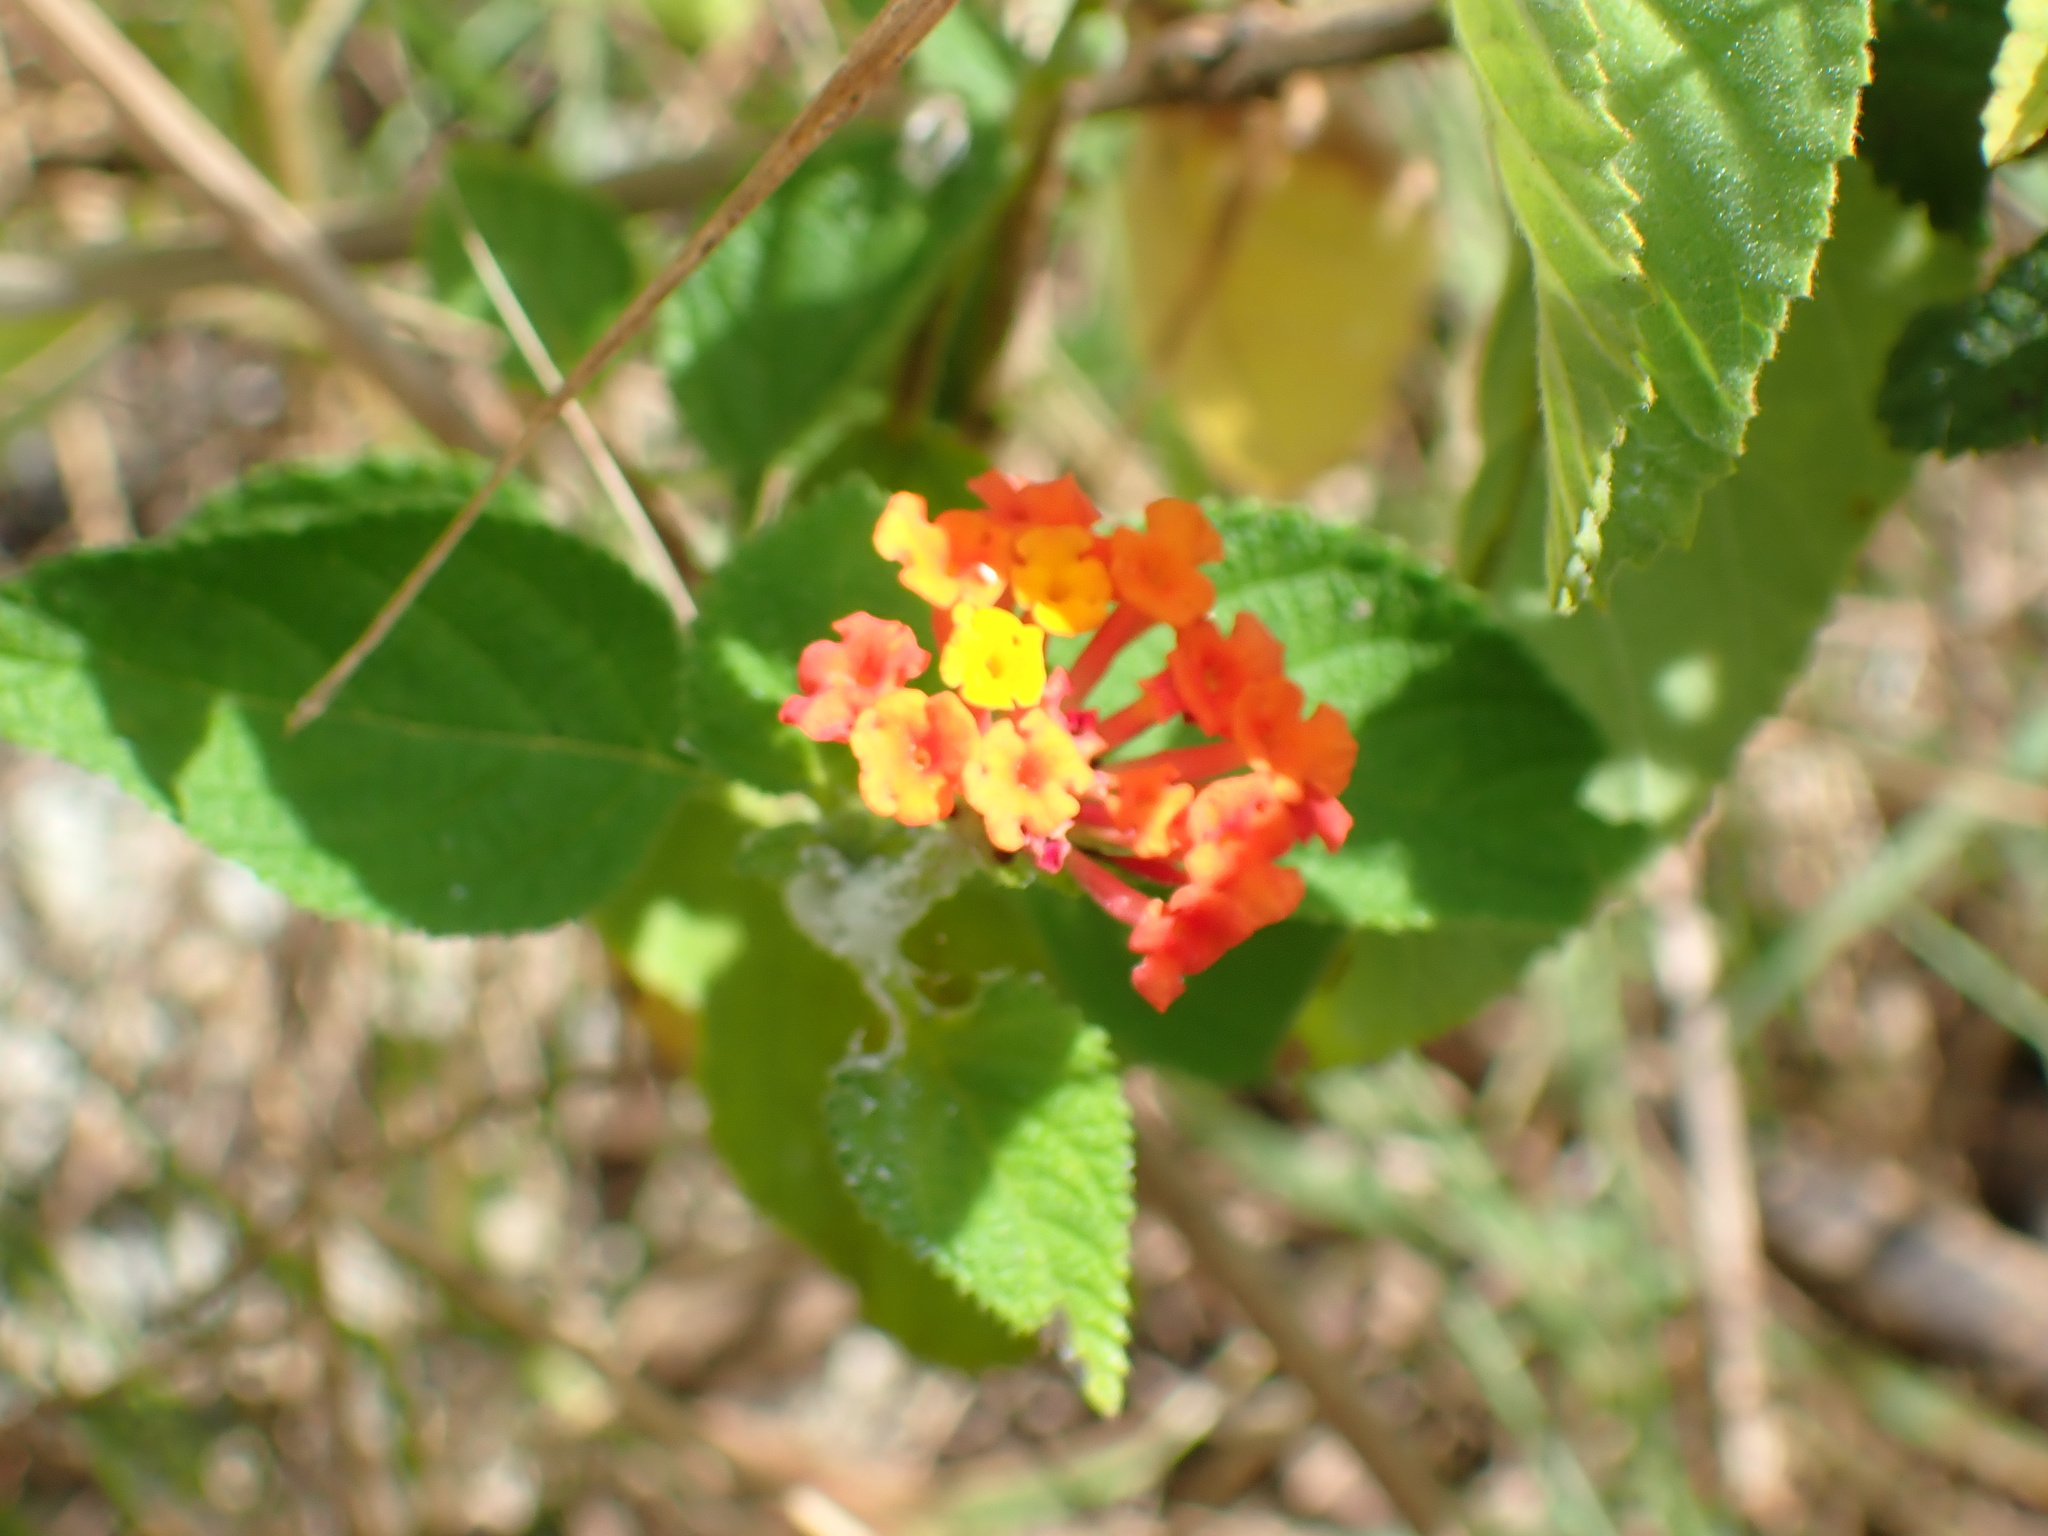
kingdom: Plantae
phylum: Tracheophyta
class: Magnoliopsida
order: Lamiales
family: Verbenaceae
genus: Lantana
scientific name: Lantana camara
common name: Lantana
